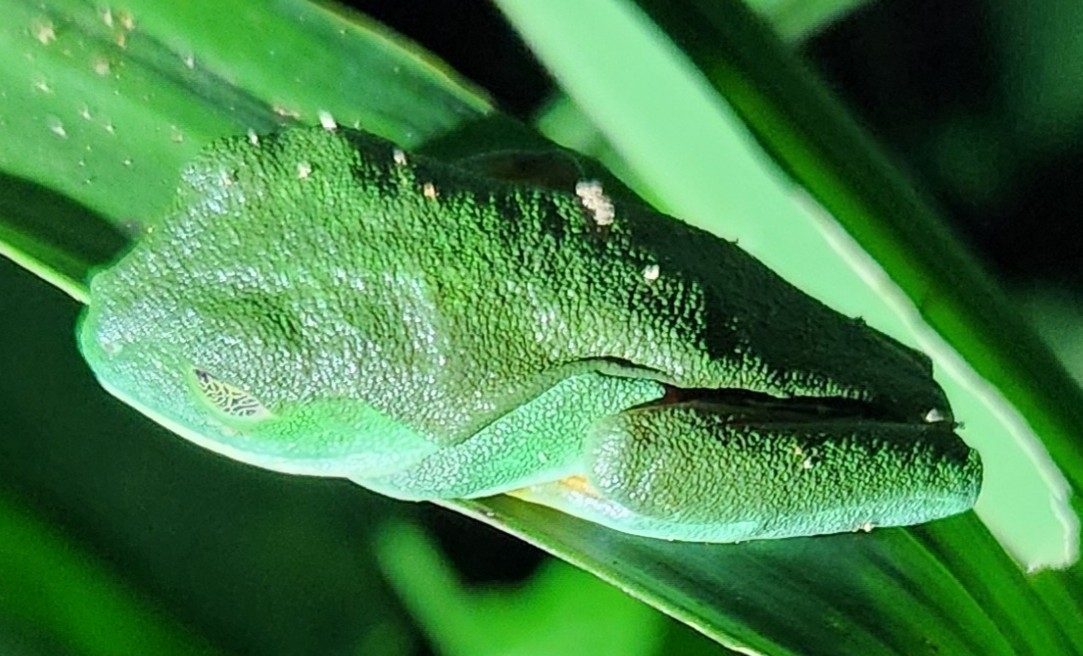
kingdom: Animalia
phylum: Chordata
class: Amphibia
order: Anura
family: Phyllomedusidae
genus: Agalychnis
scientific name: Agalychnis callidryas
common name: Red-eyed treefrog
